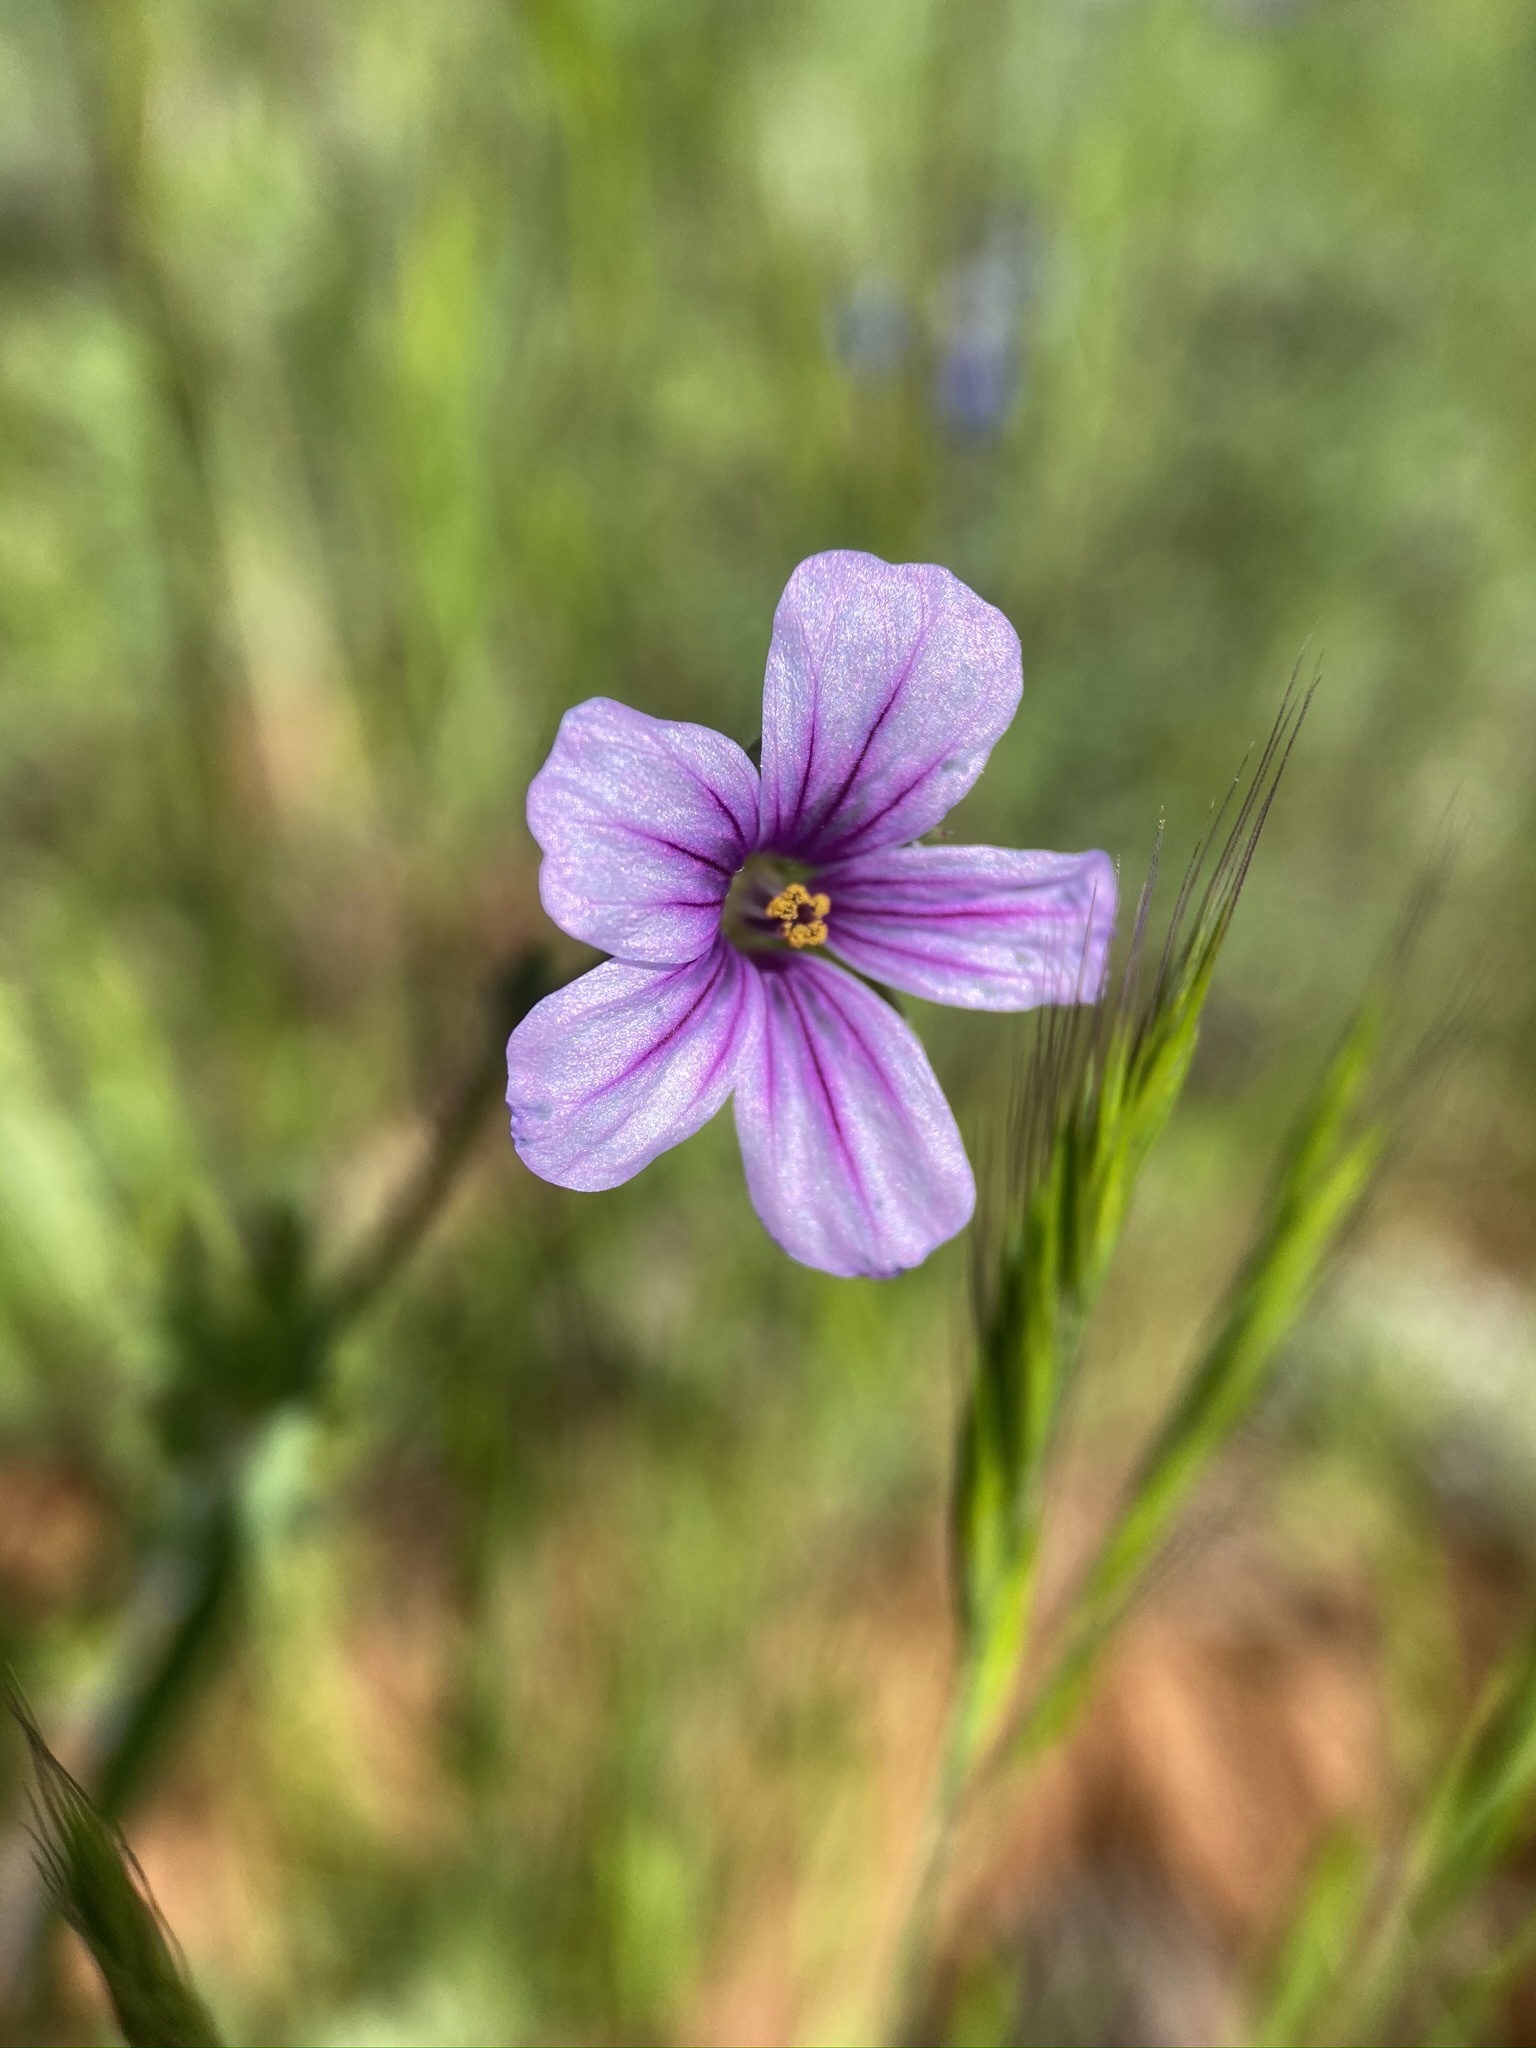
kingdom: Plantae
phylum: Tracheophyta
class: Magnoliopsida
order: Geraniales
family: Geraniaceae
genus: Erodium
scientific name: Erodium botrys
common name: Mediterranean stork's-bill
